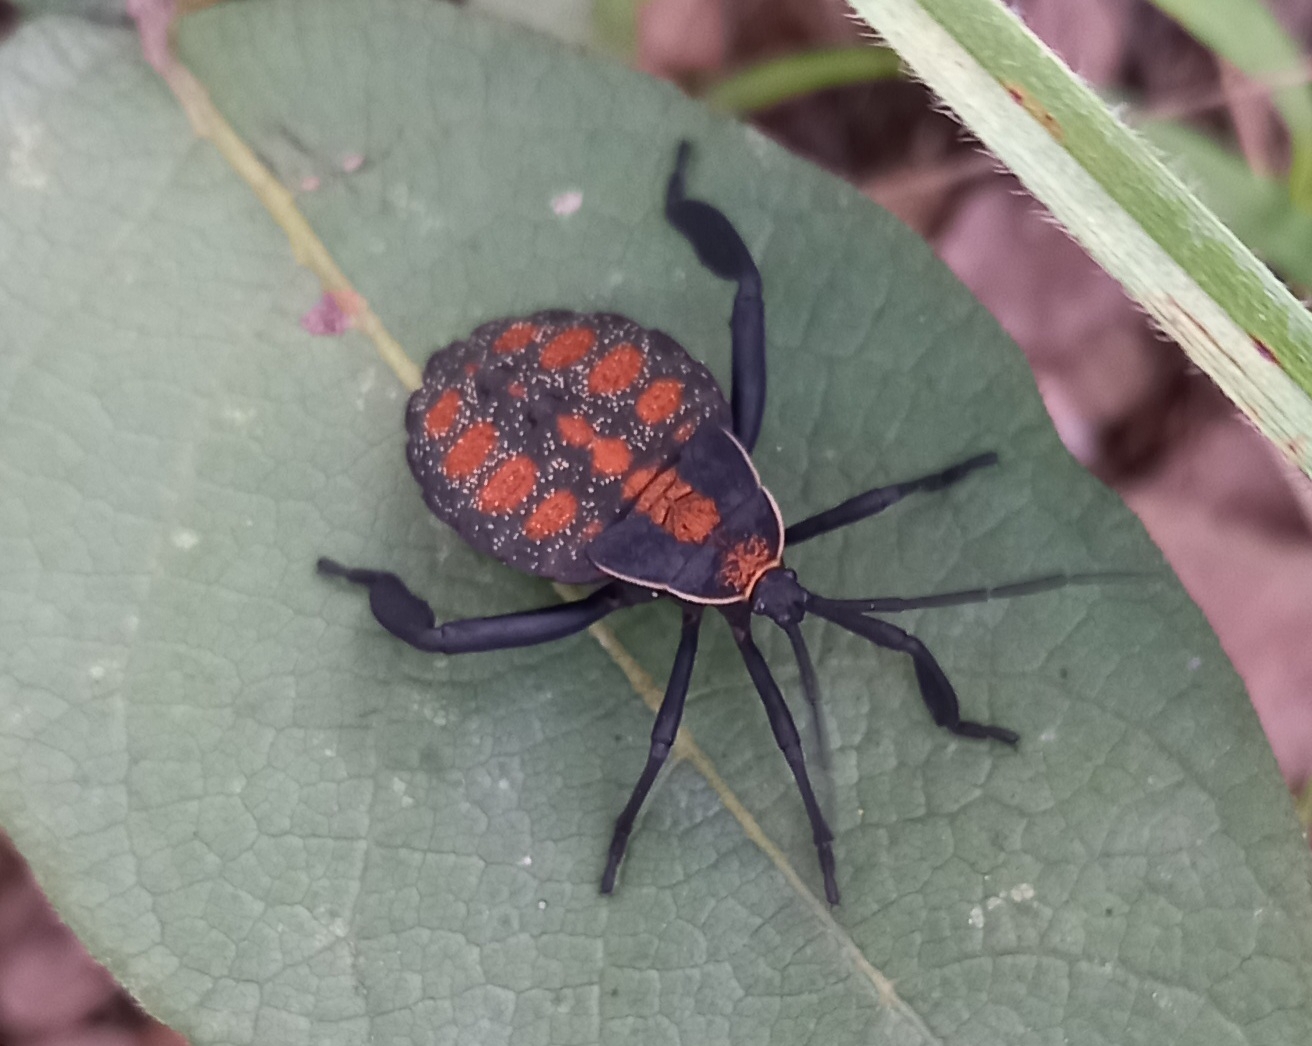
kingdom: Animalia
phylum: Arthropoda
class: Insecta
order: Hemiptera
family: Coreidae
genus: Petascelis
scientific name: Petascelis remipes
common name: Giant twig wilter
